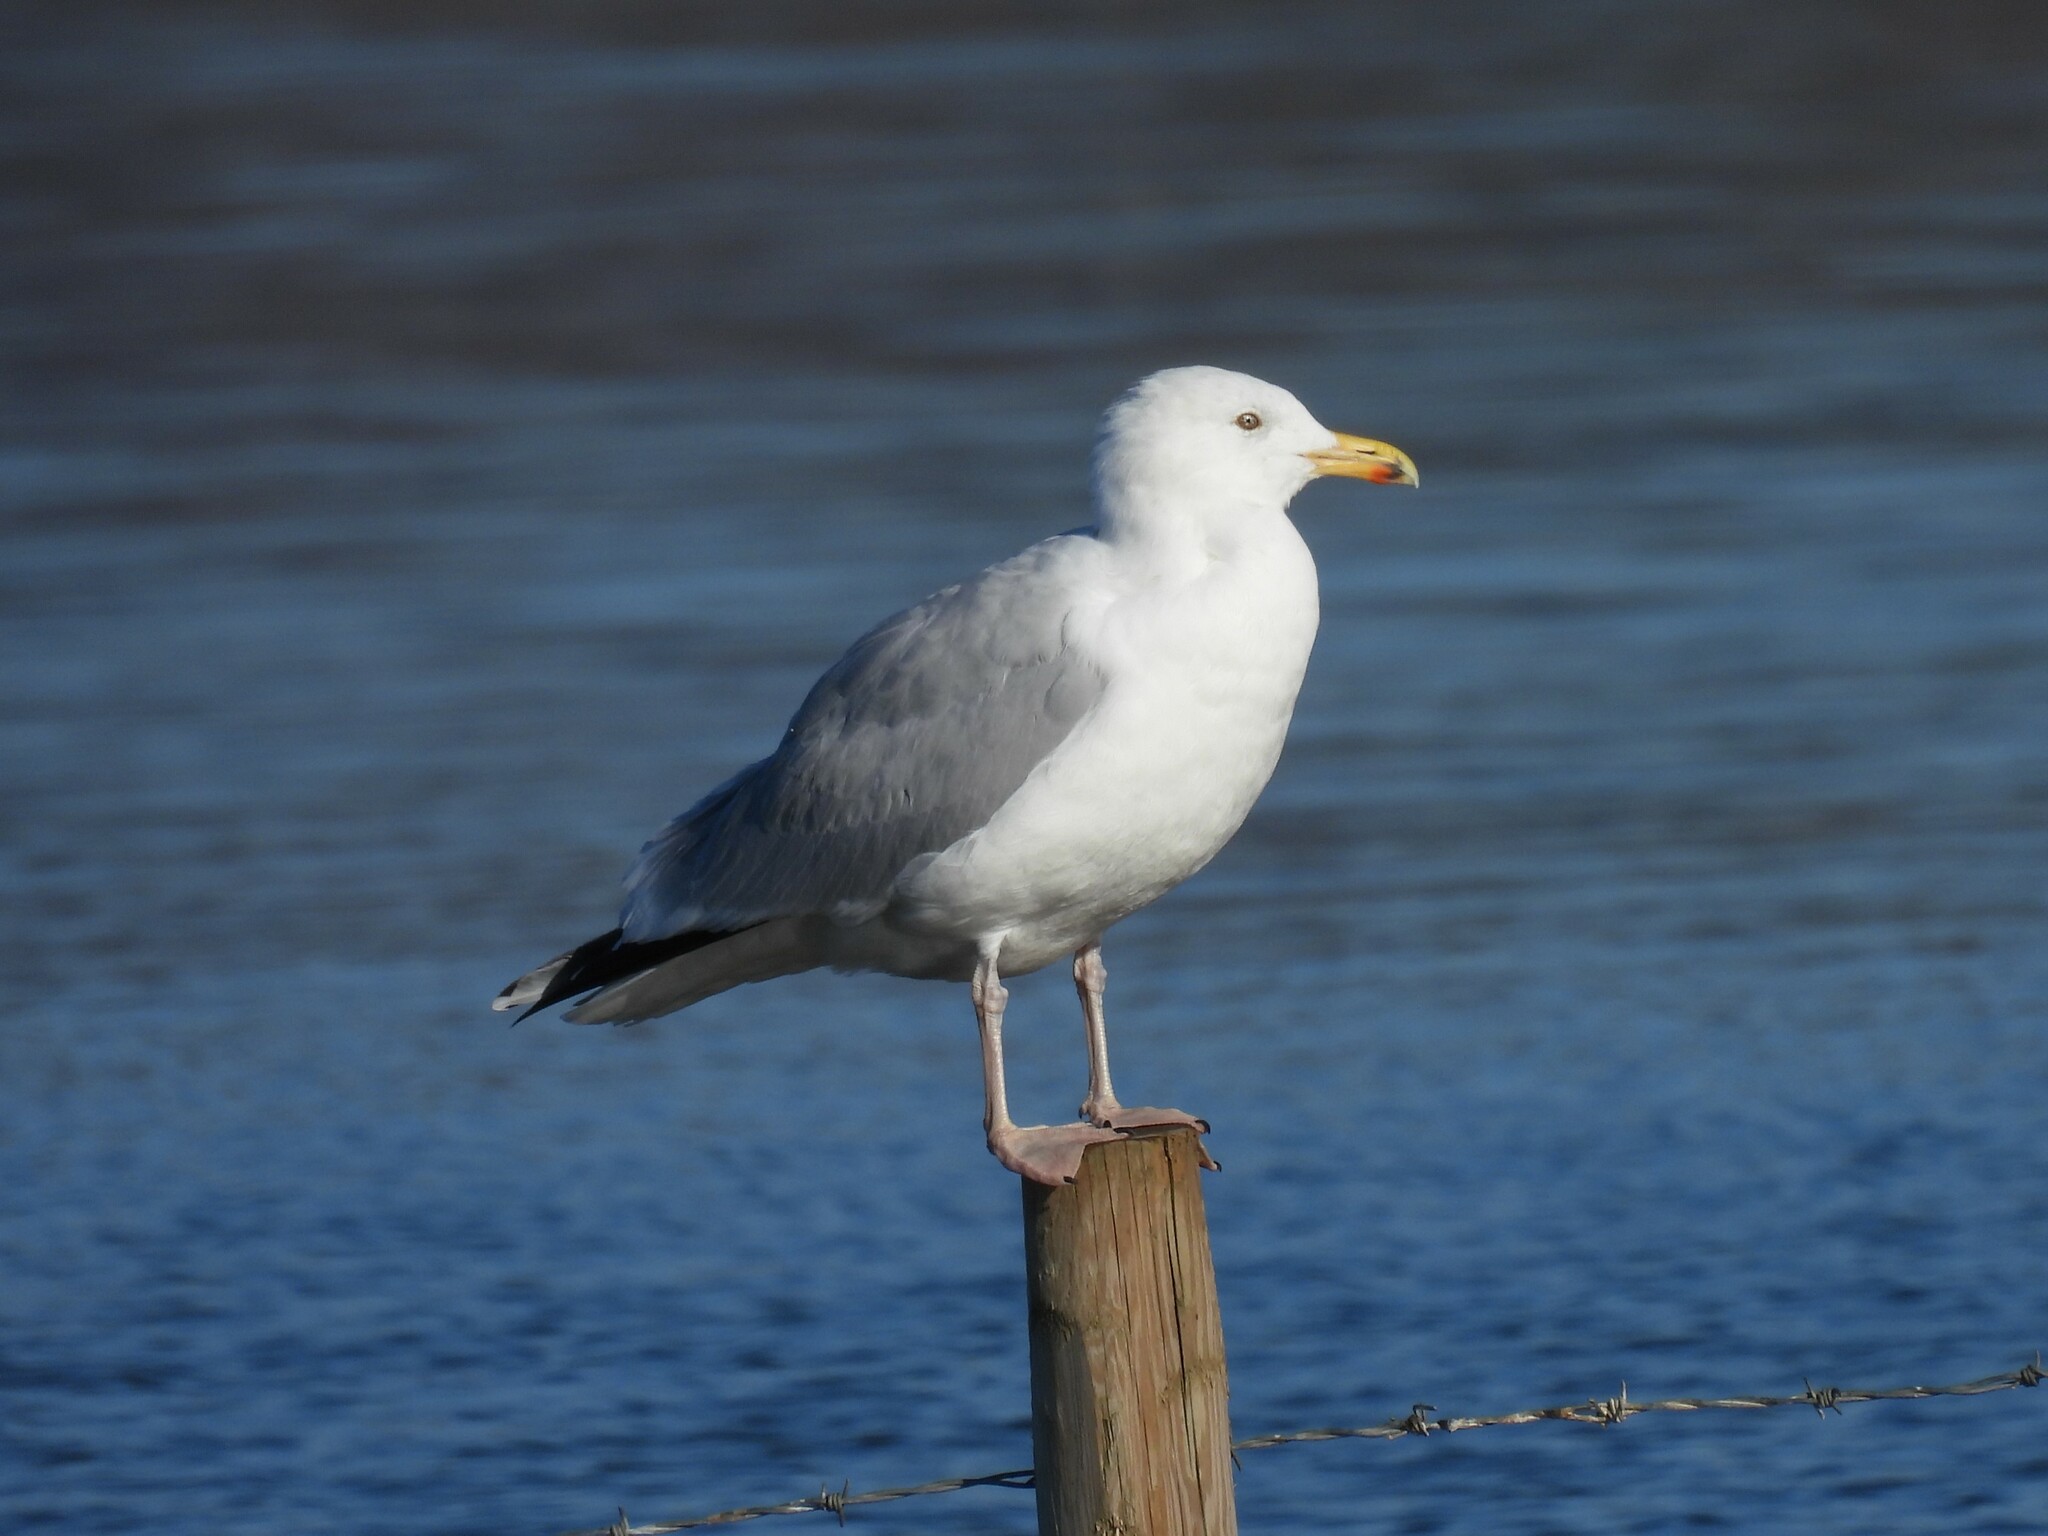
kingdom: Animalia
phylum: Chordata
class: Aves
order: Charadriiformes
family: Laridae
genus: Larus
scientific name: Larus argentatus
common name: Herring gull
